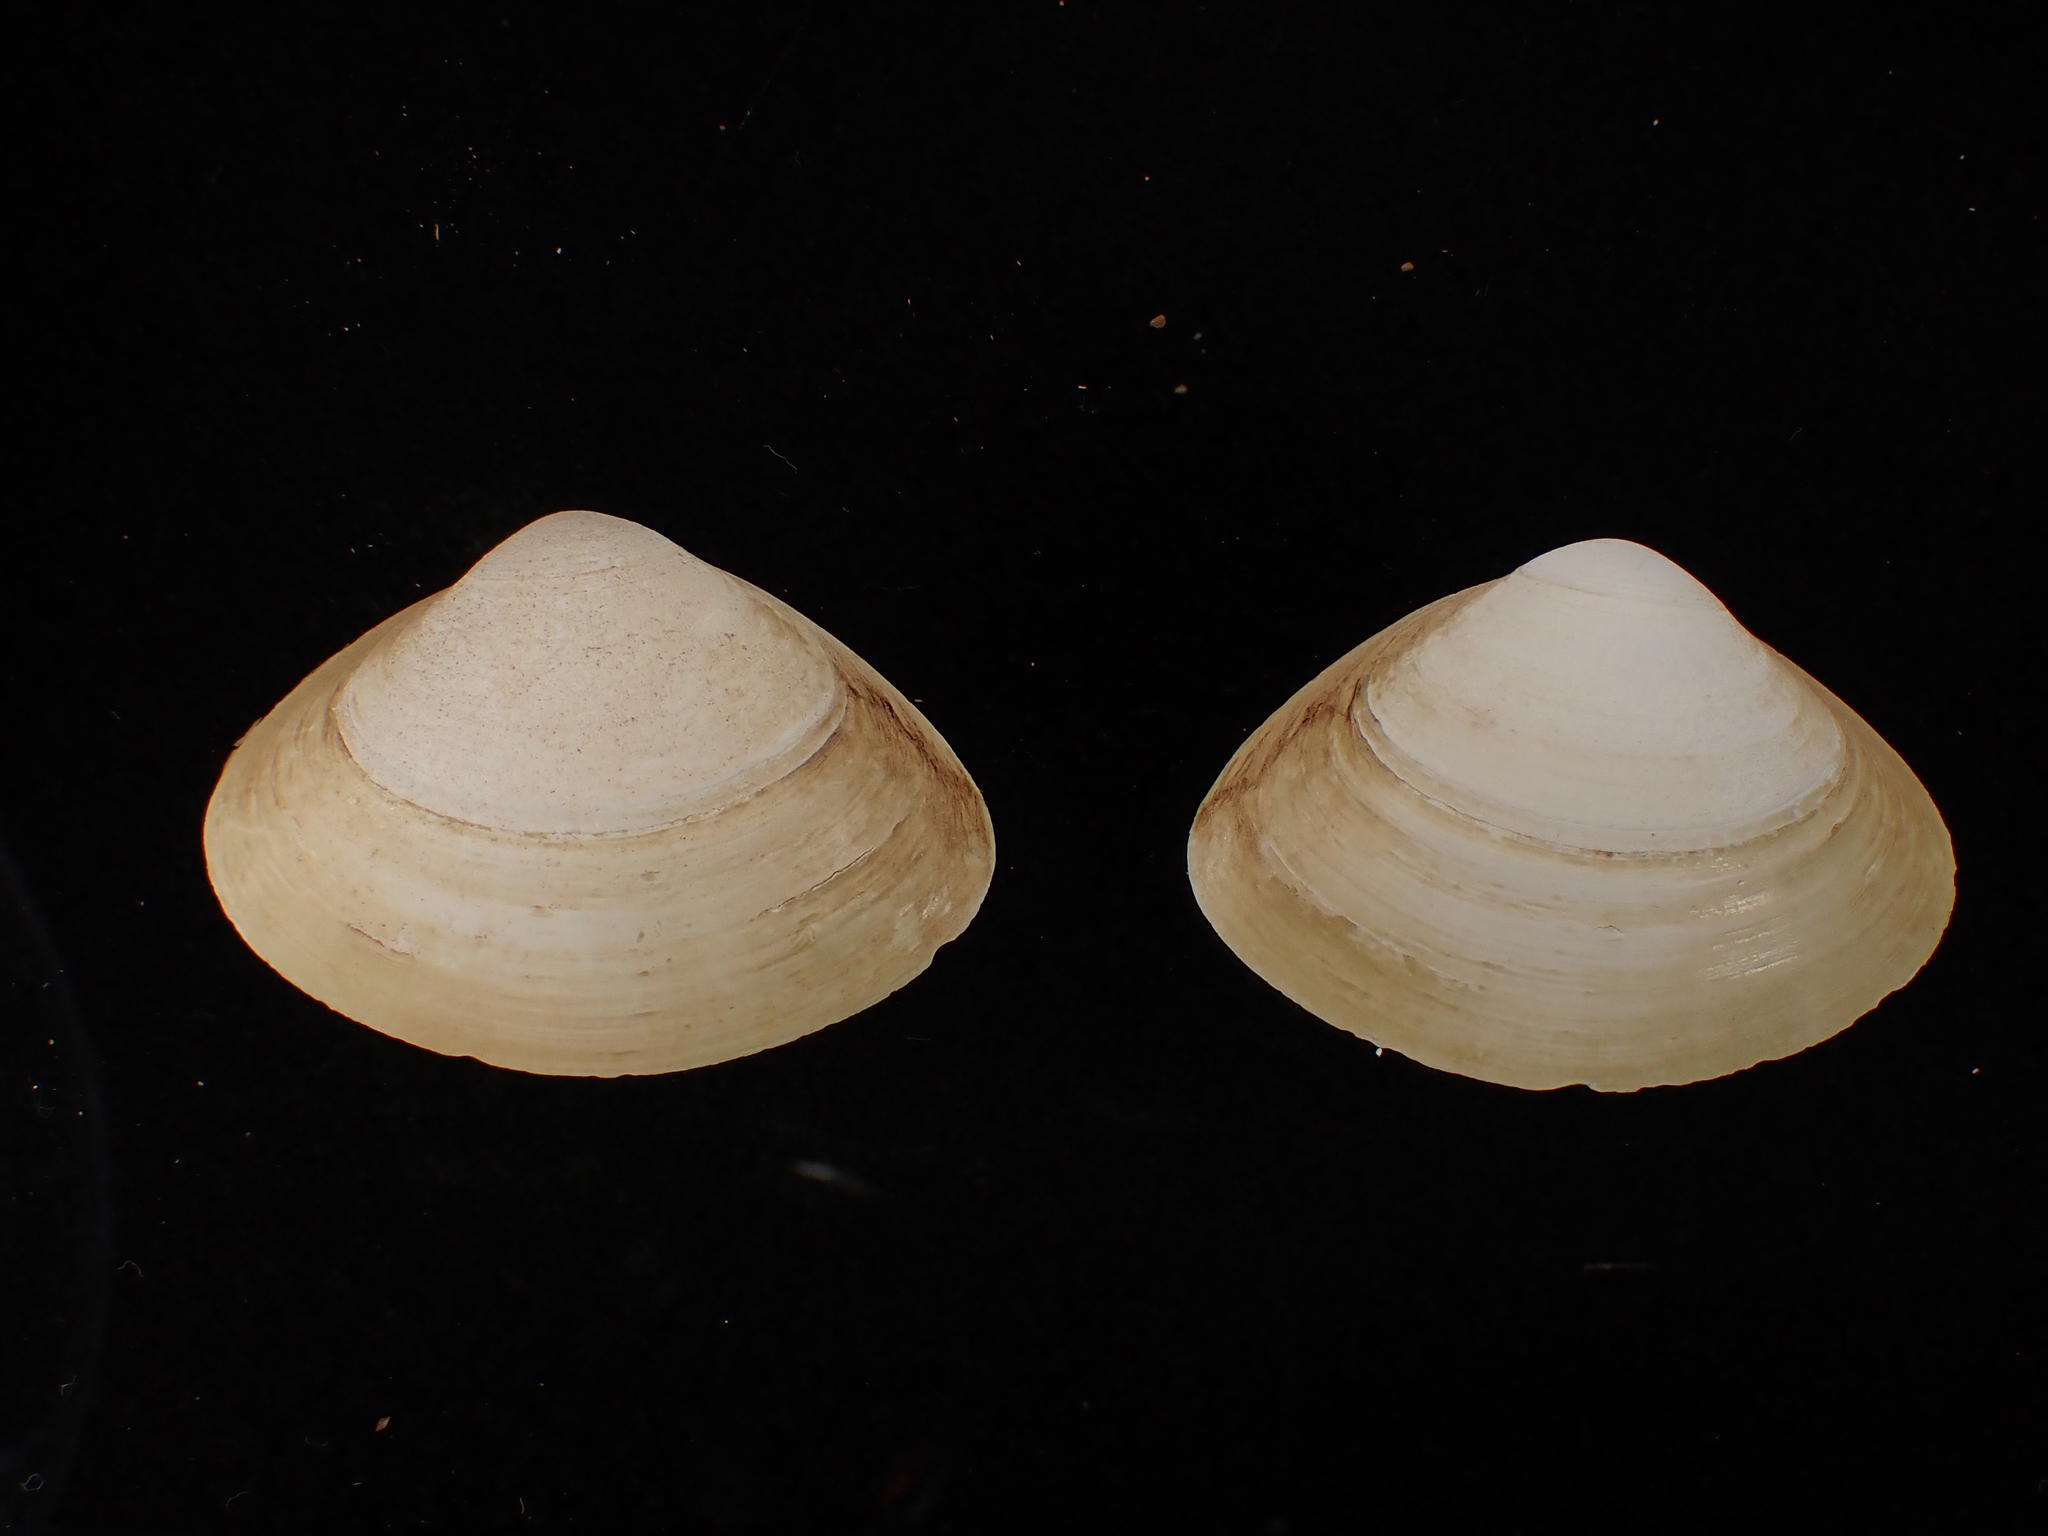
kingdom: Animalia
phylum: Mollusca
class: Bivalvia
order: Venerida
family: Mactridae
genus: Spisula
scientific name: Spisula solidissima
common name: Atlantic surf clam
